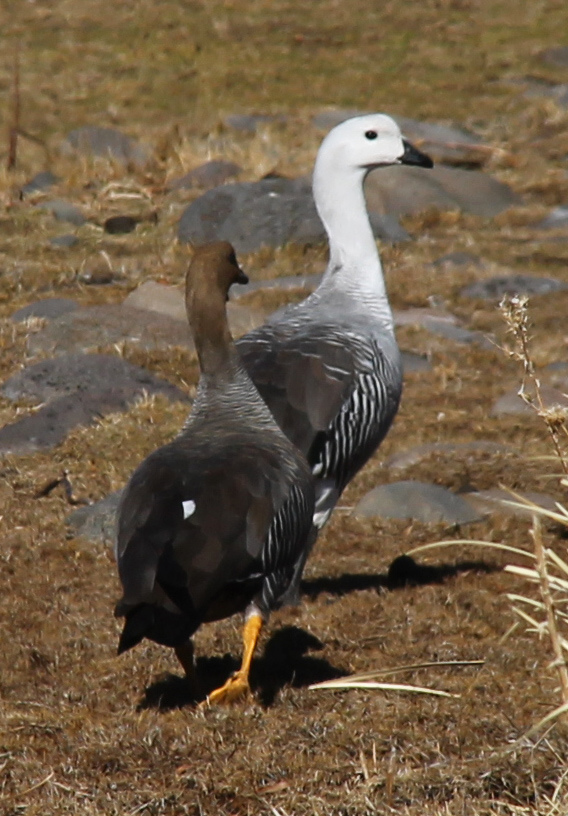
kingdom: Animalia
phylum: Chordata
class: Aves
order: Anseriformes
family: Anatidae
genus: Chloephaga
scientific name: Chloephaga picta
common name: Upland goose
